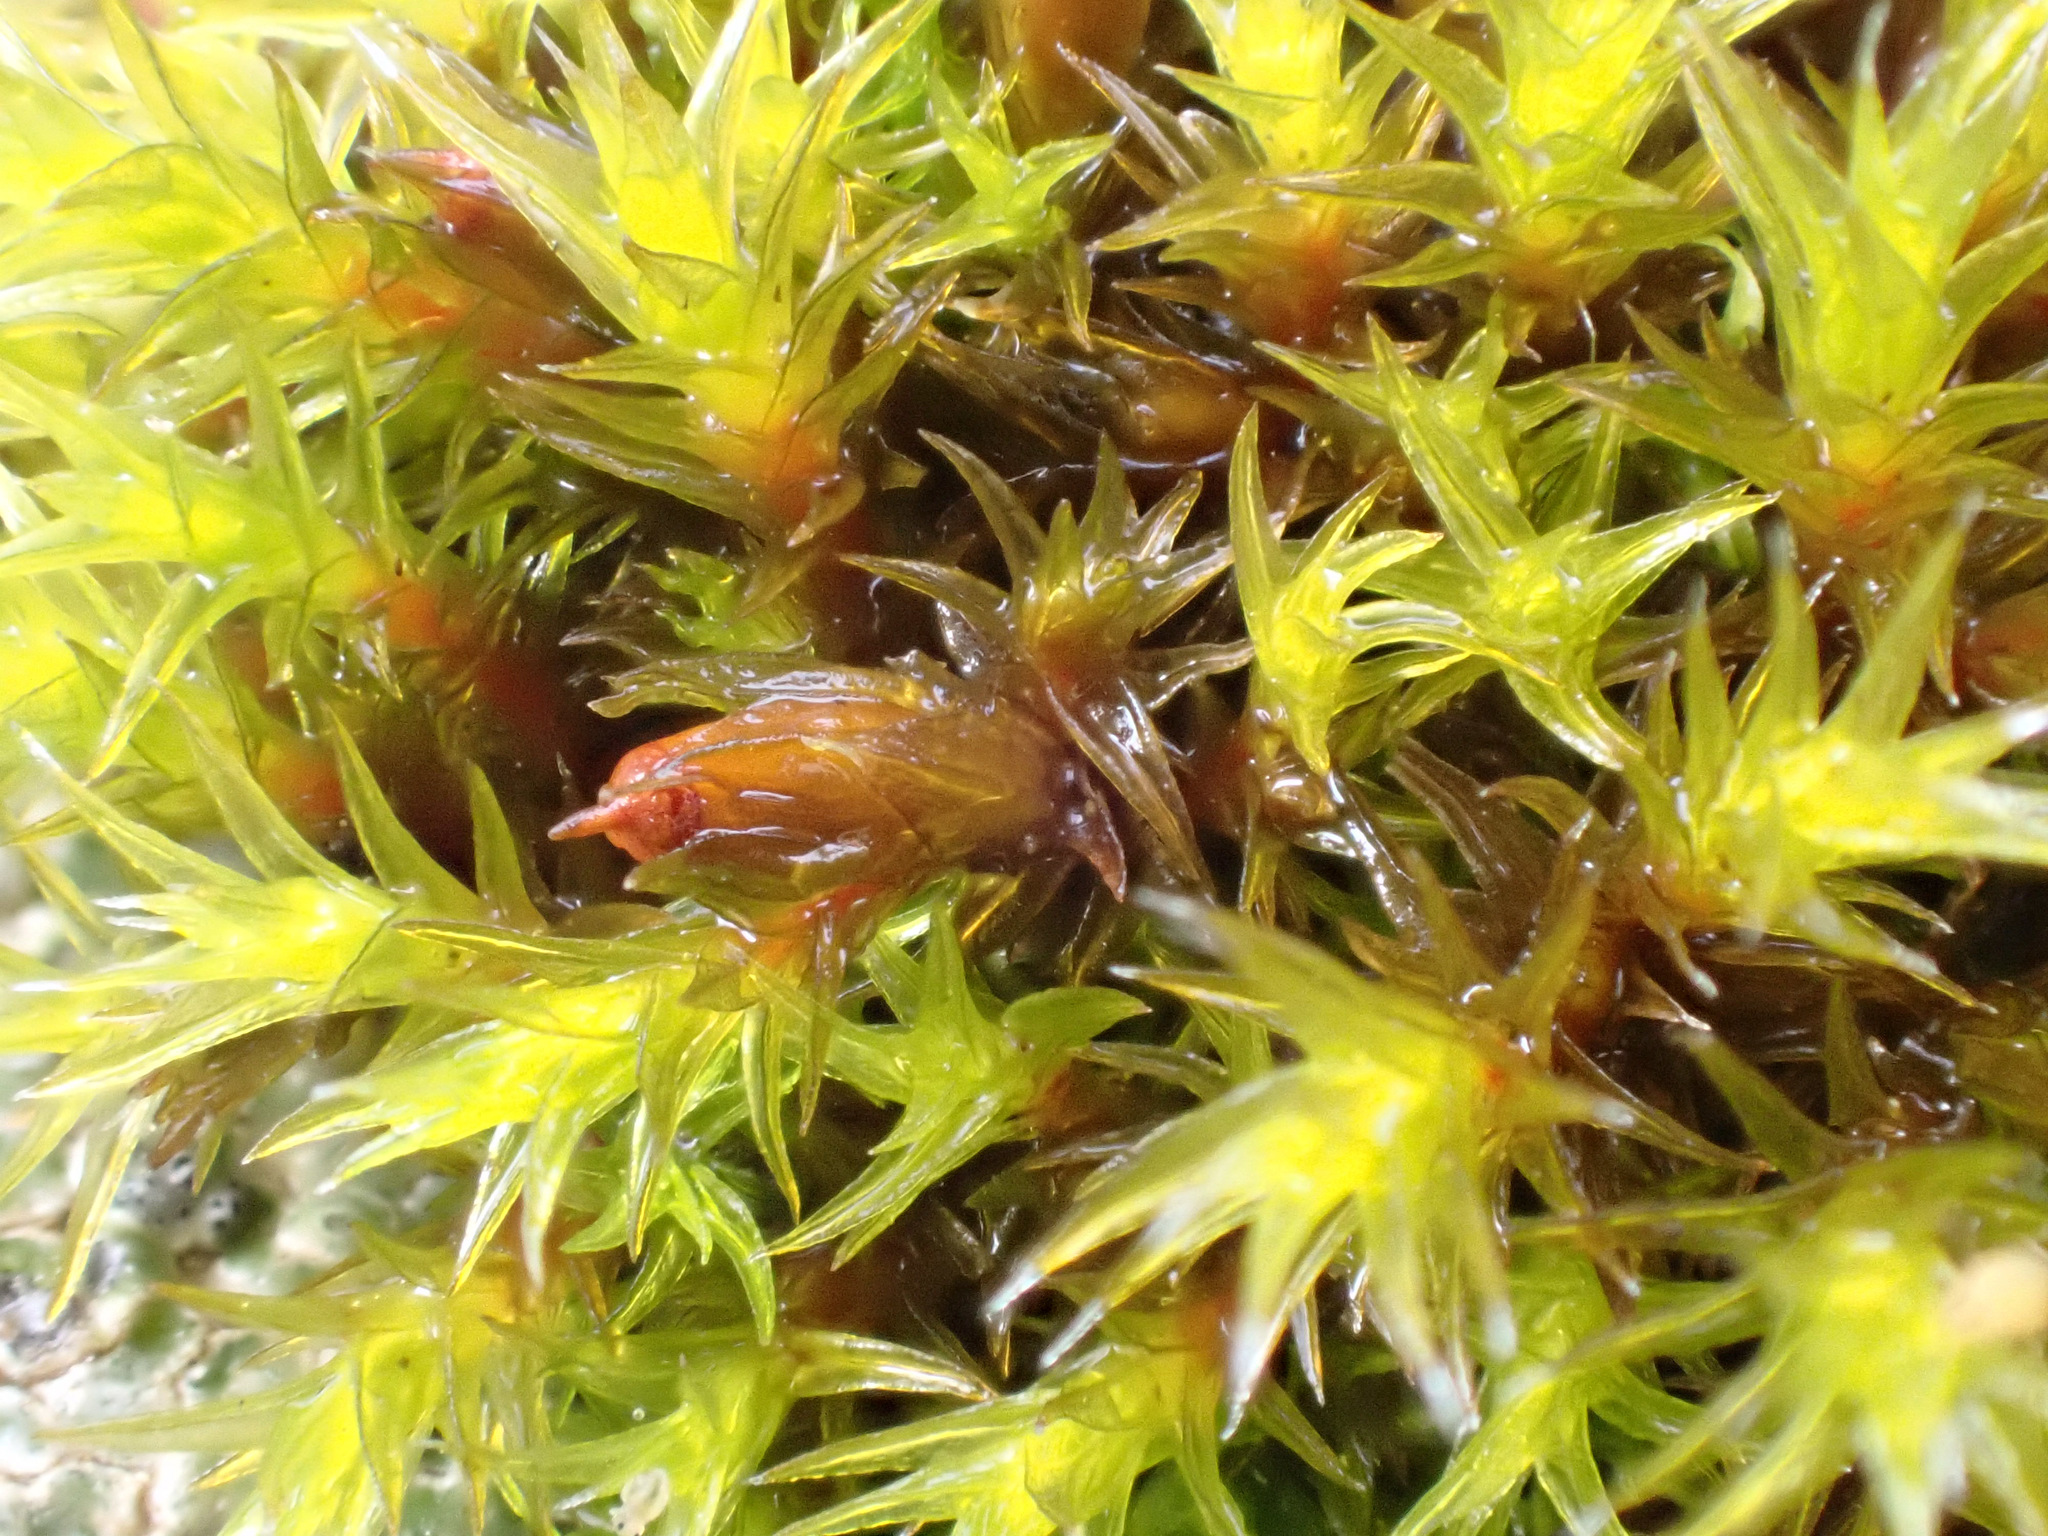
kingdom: Plantae
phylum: Bryophyta
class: Bryopsida
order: Grimmiales
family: Grimmiaceae
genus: Schistidium
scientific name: Schistidium crassipilum
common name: Thickpoint bloom moss
